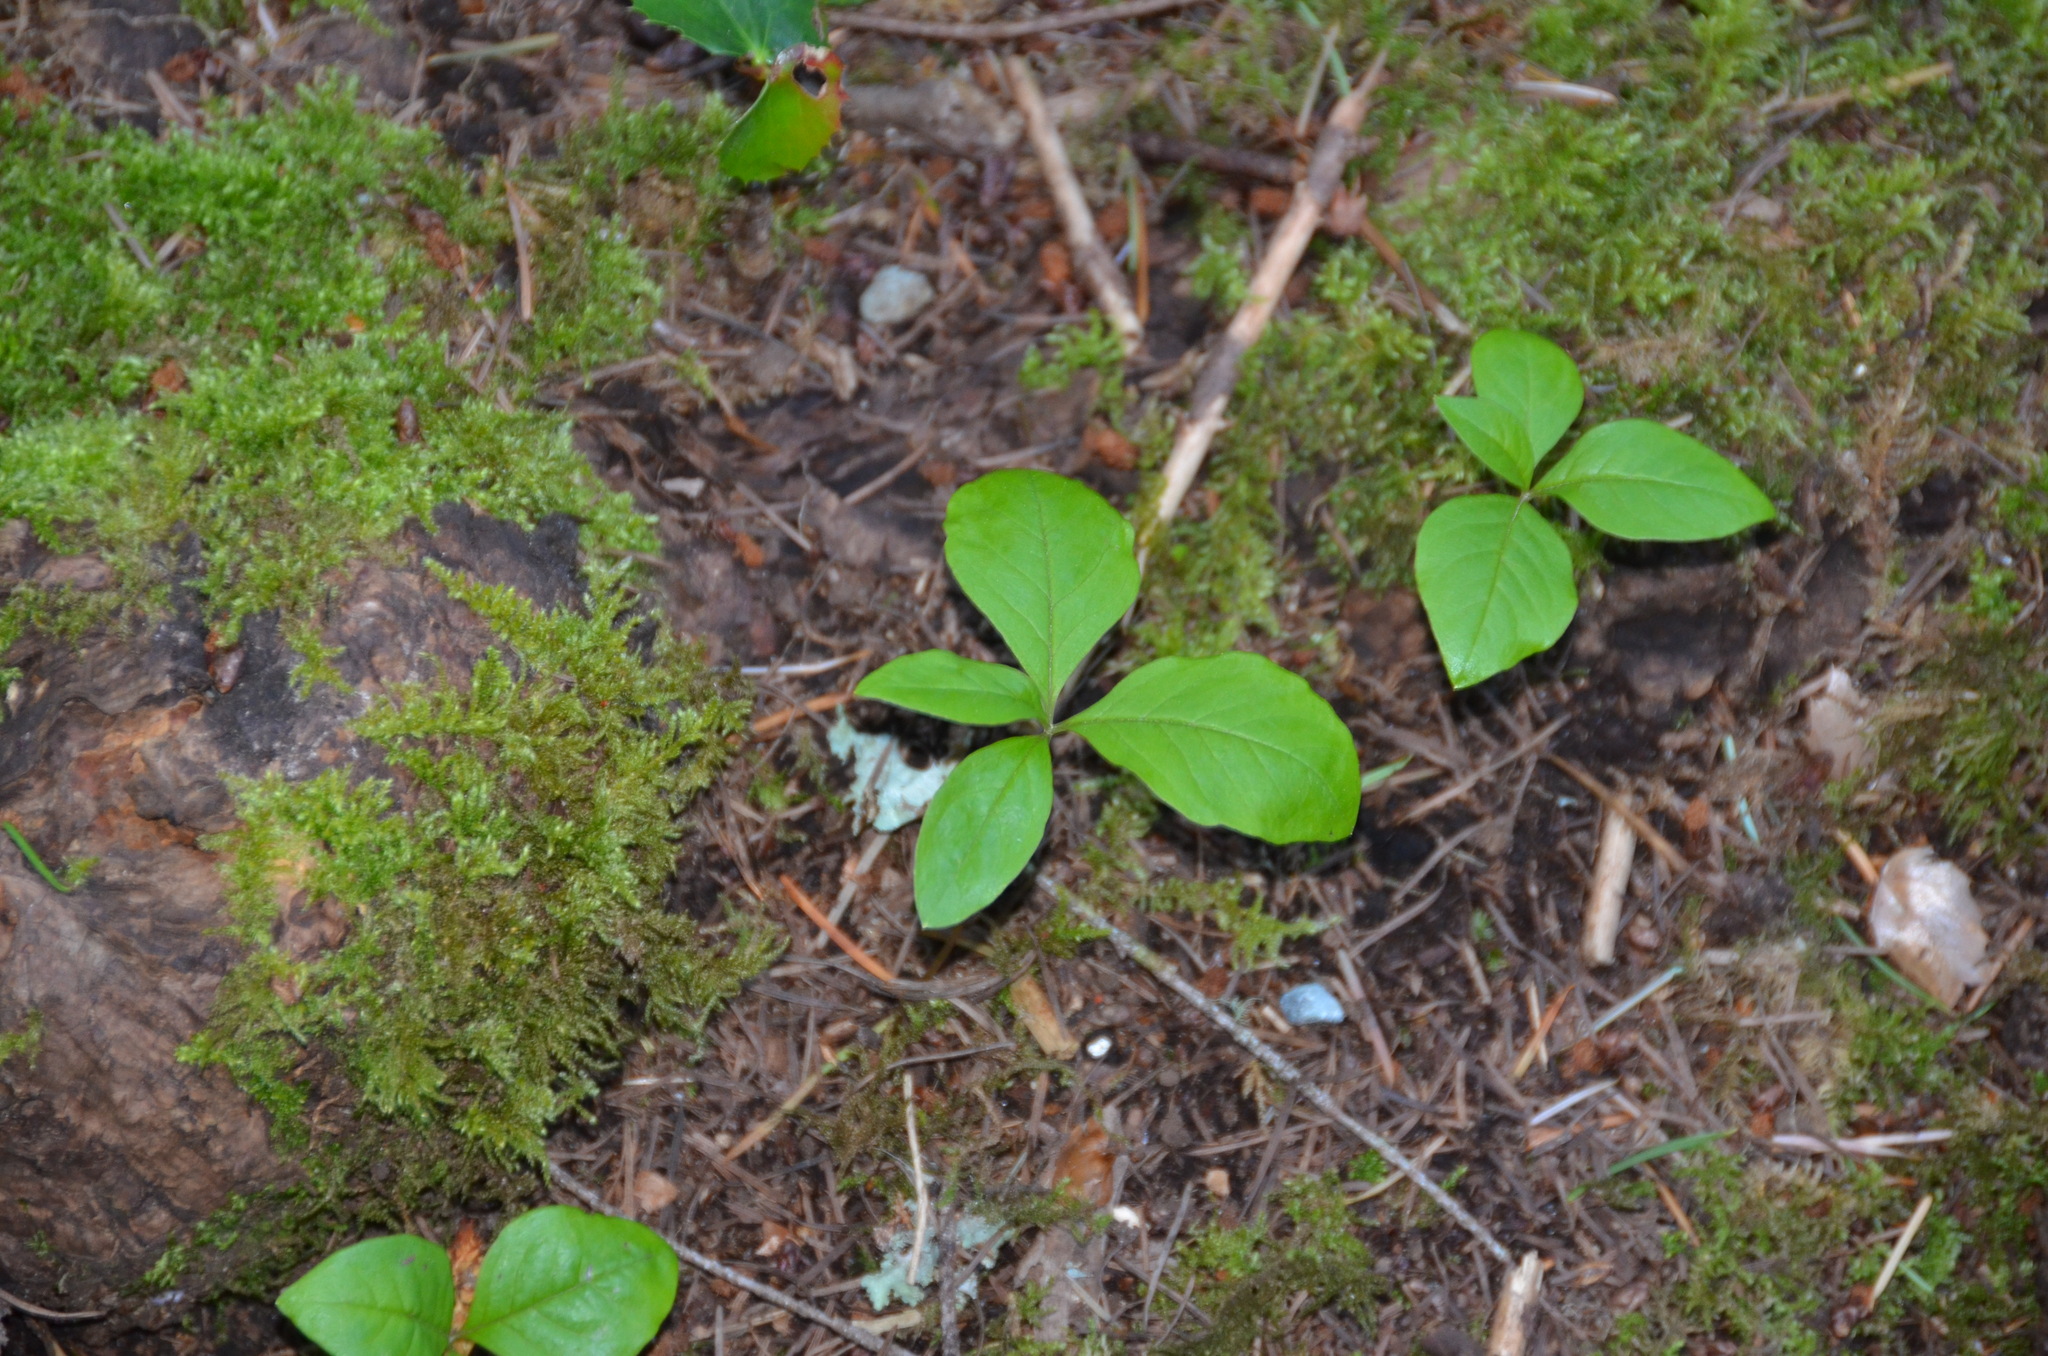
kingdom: Plantae
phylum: Tracheophyta
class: Magnoliopsida
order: Ericales
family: Primulaceae
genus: Lysimachia
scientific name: Lysimachia latifolia
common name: Pacific starflower
